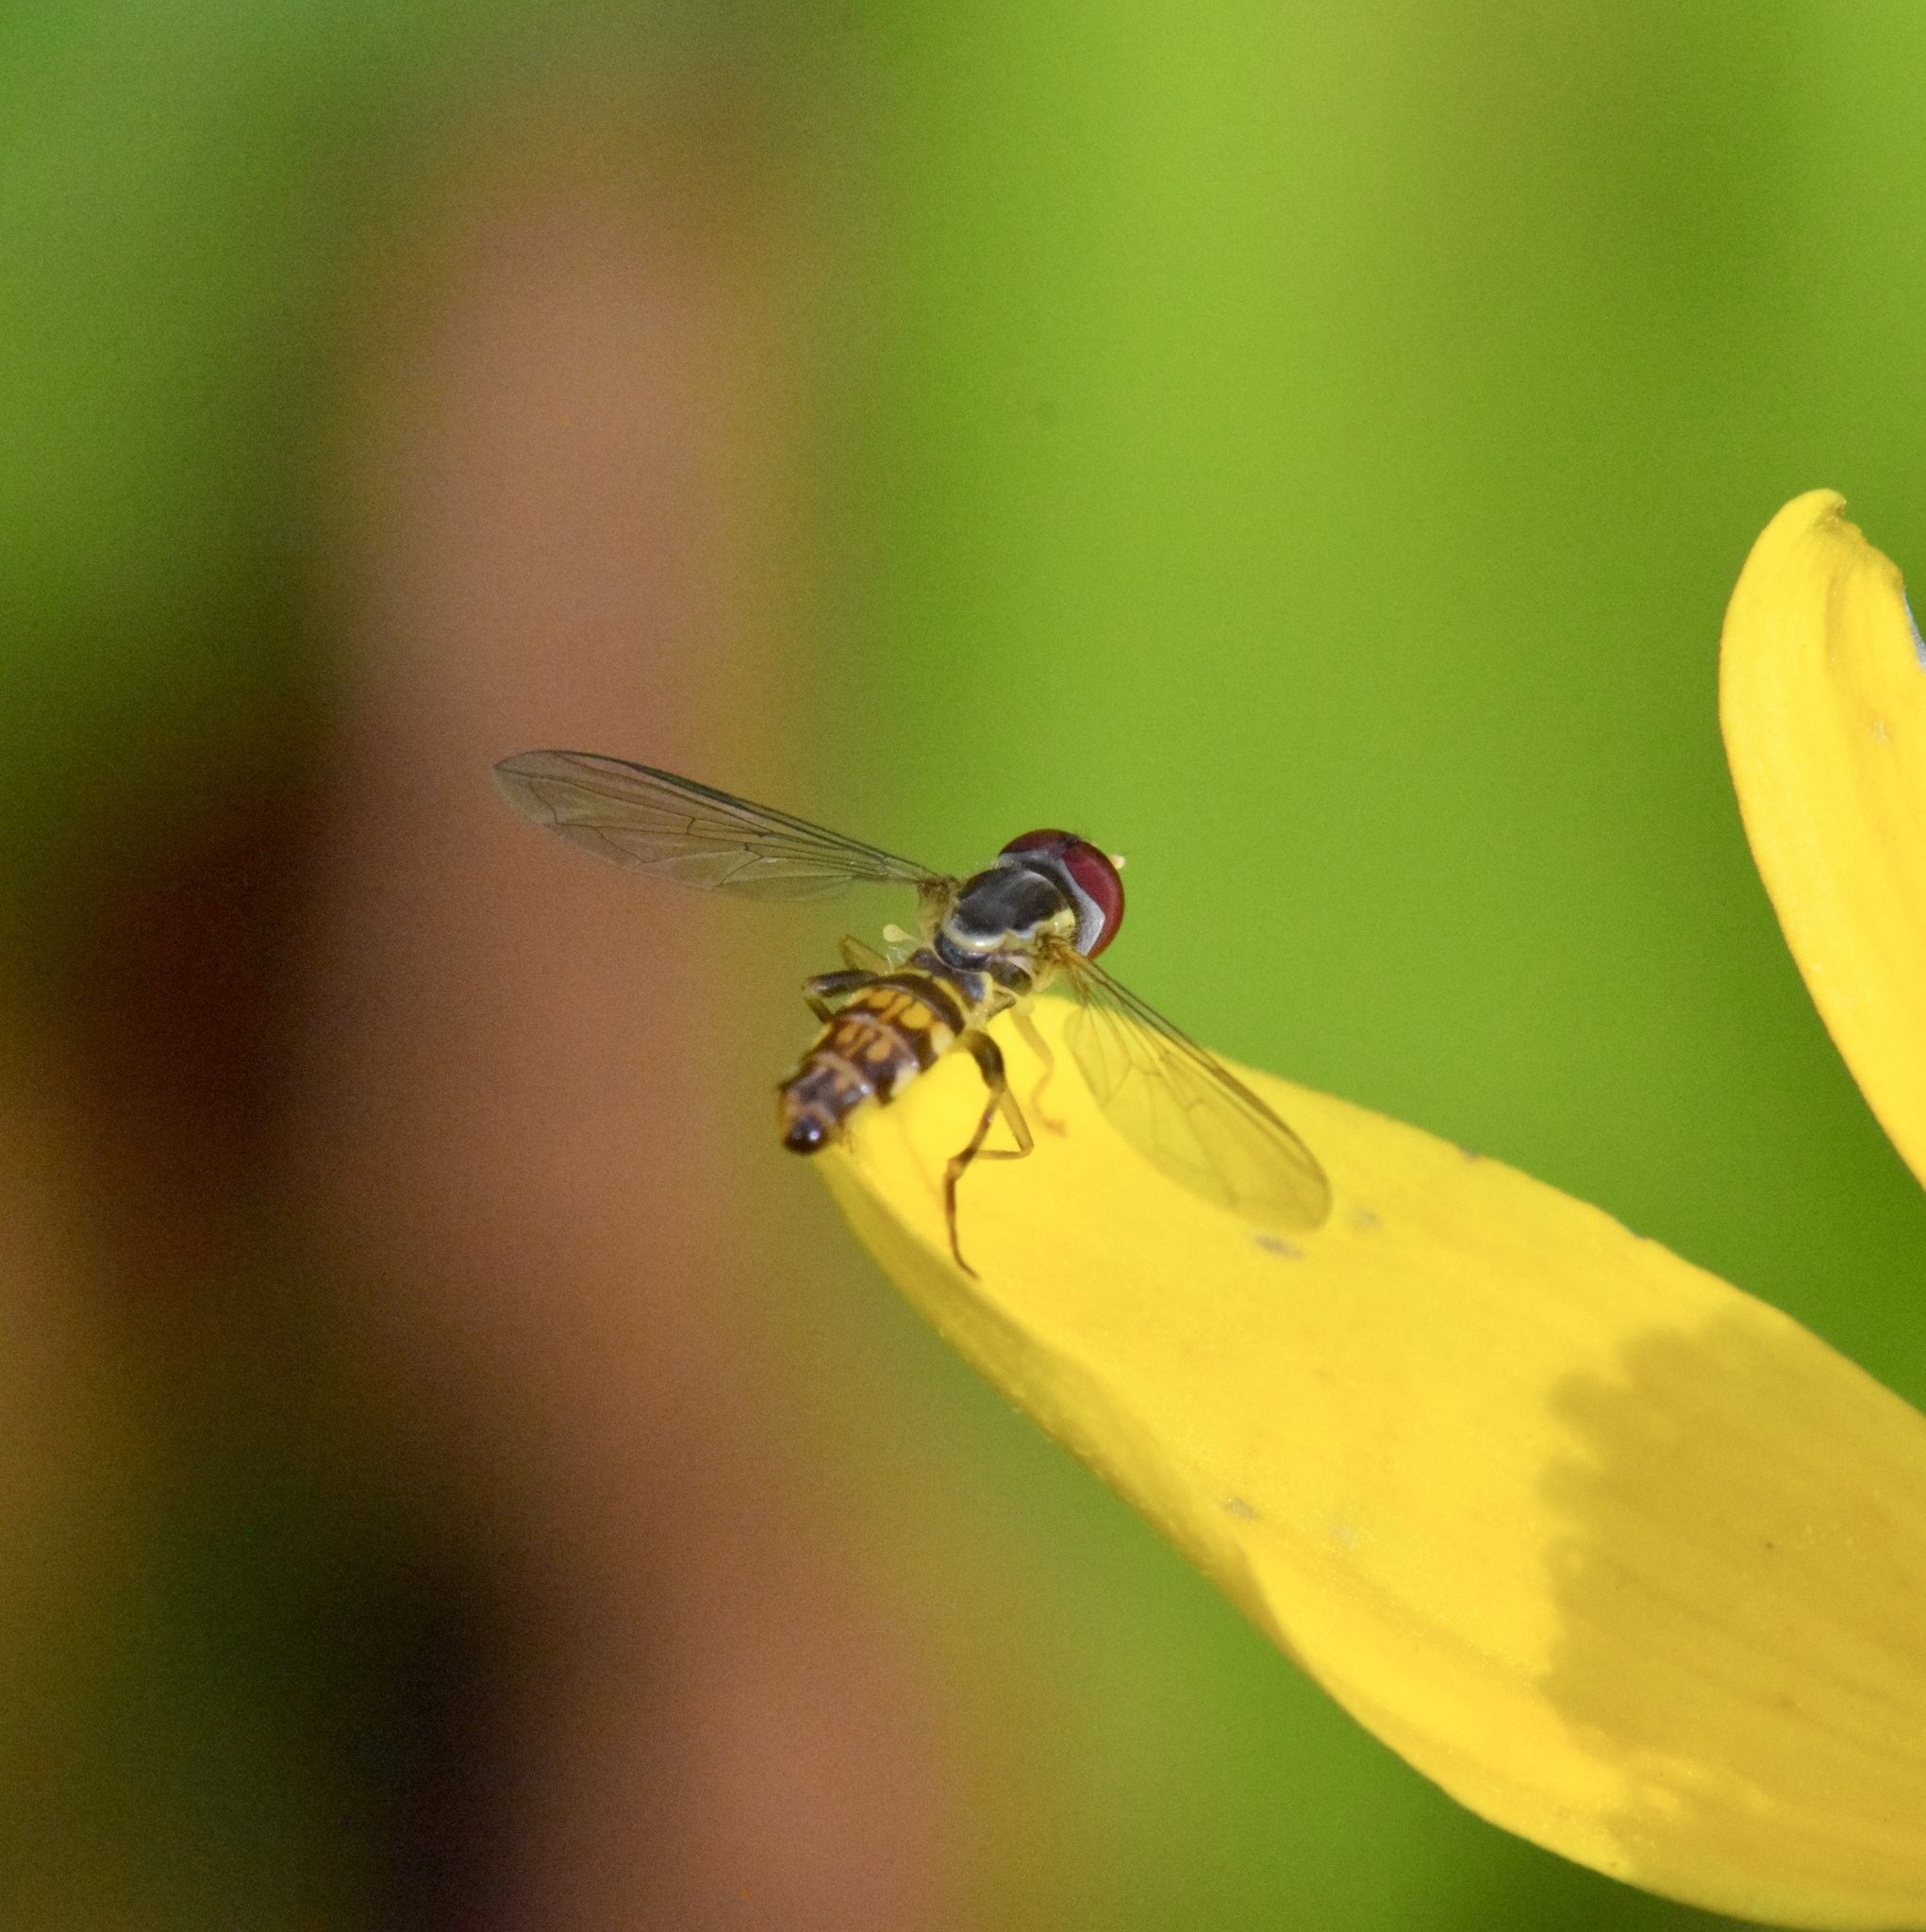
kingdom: Animalia
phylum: Arthropoda
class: Insecta
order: Diptera
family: Syrphidae
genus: Toxomerus
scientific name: Toxomerus geminatus
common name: Eastern calligrapher
